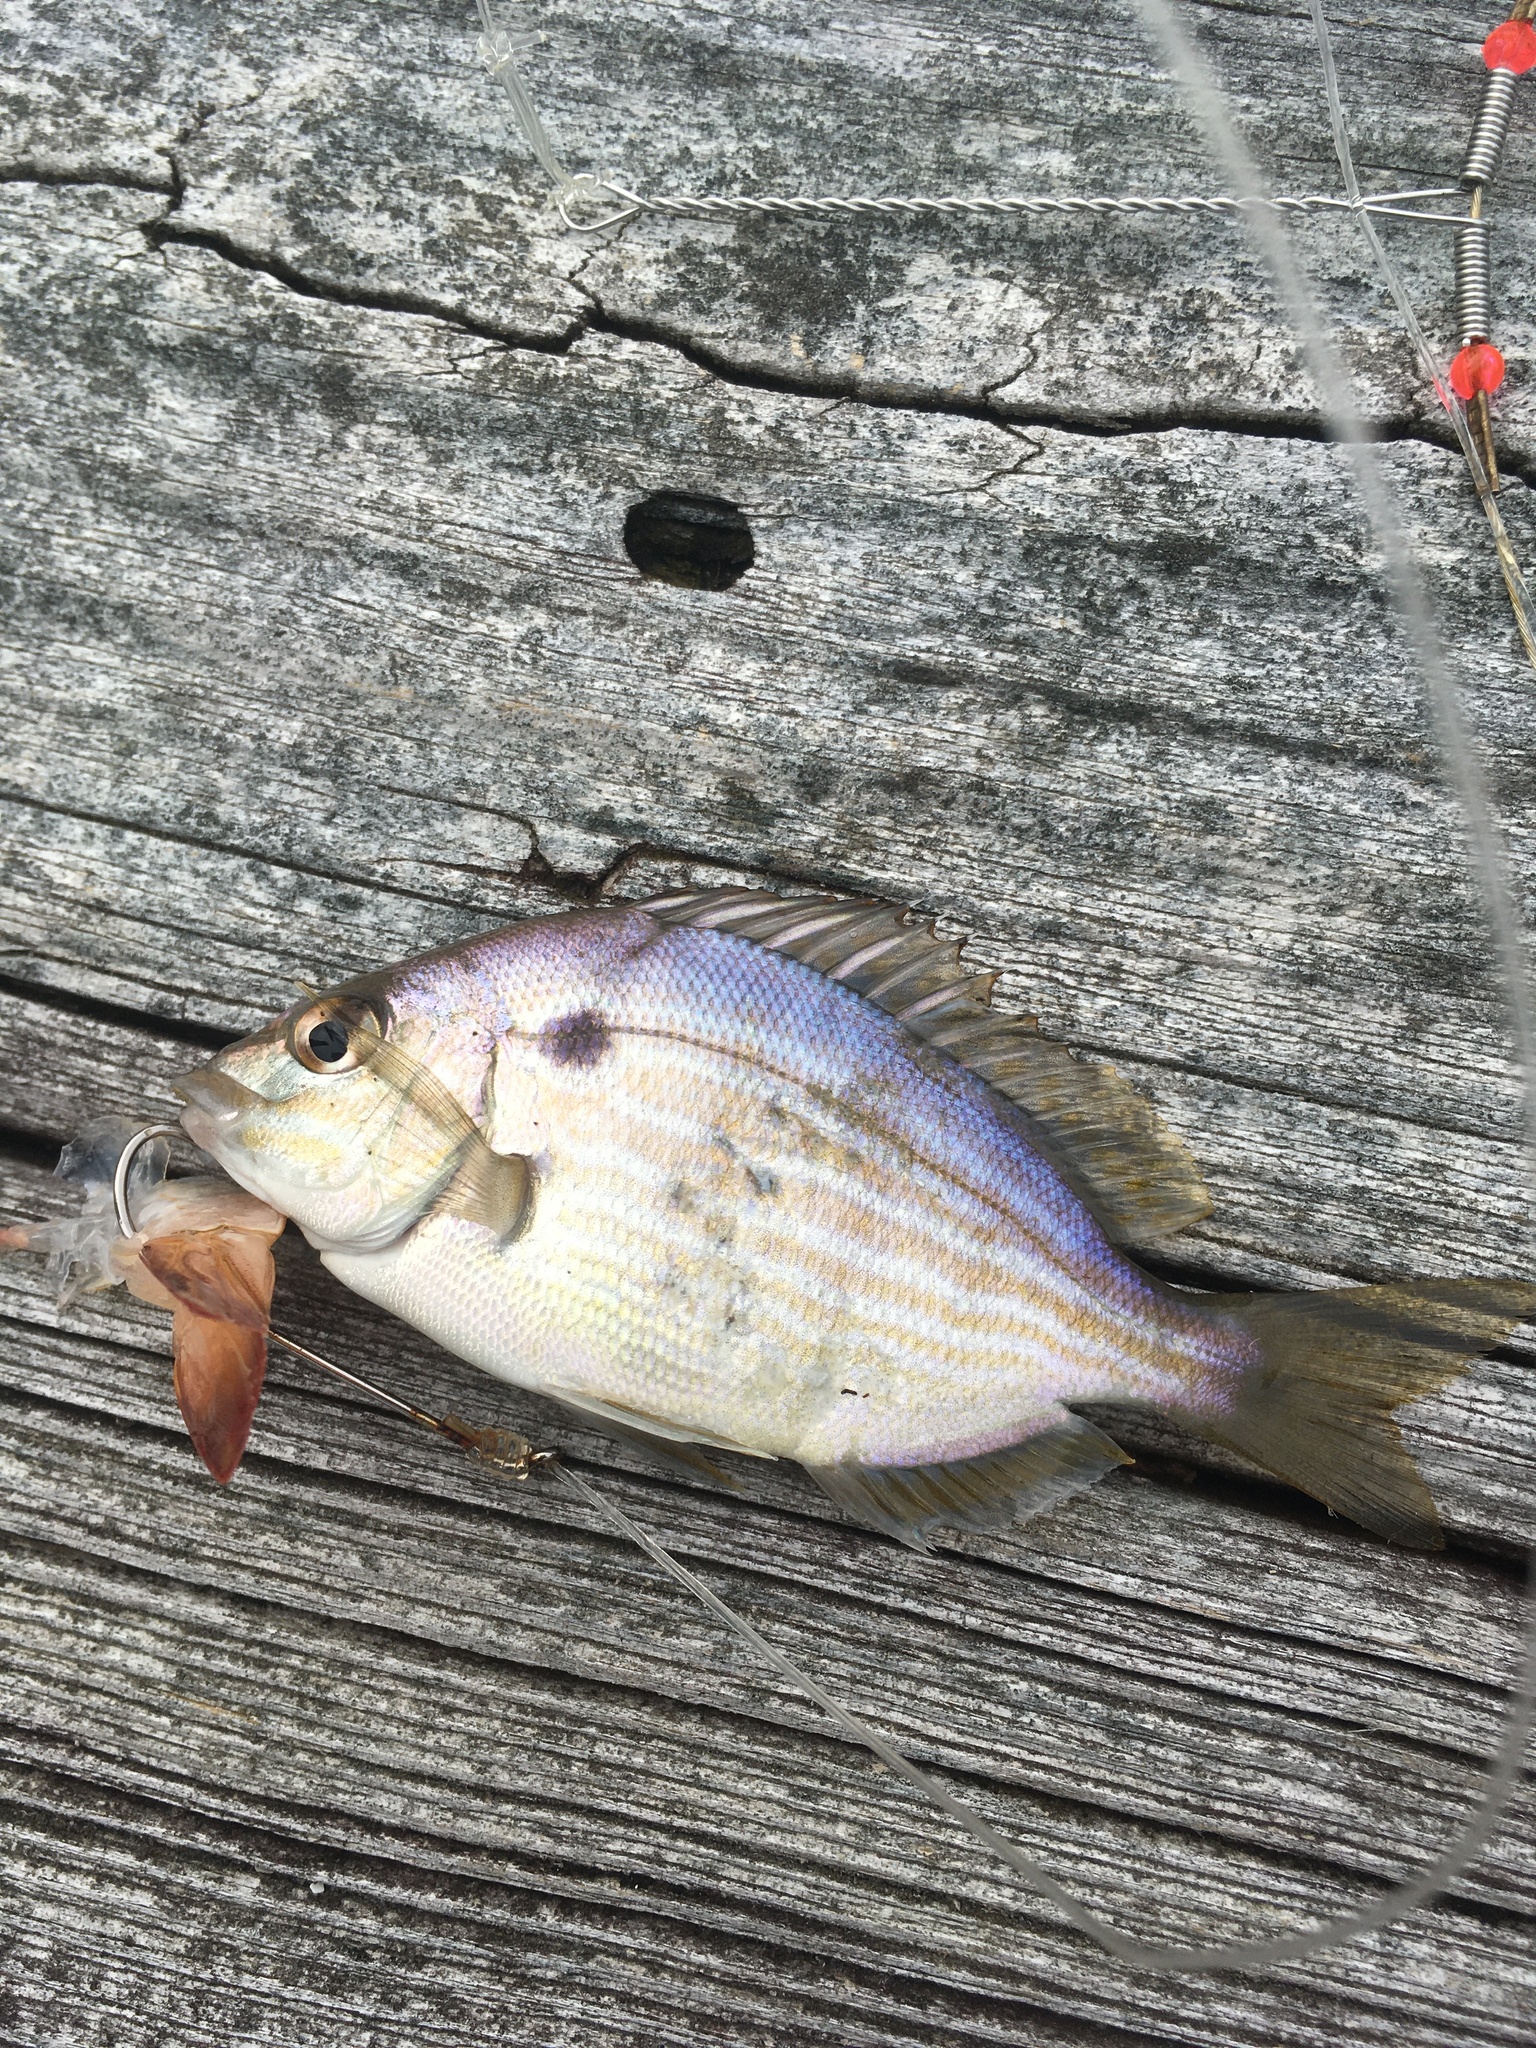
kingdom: Animalia
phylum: Chordata
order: Perciformes
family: Sparidae
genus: Lagodon
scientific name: Lagodon rhomboides
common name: Pinfish
